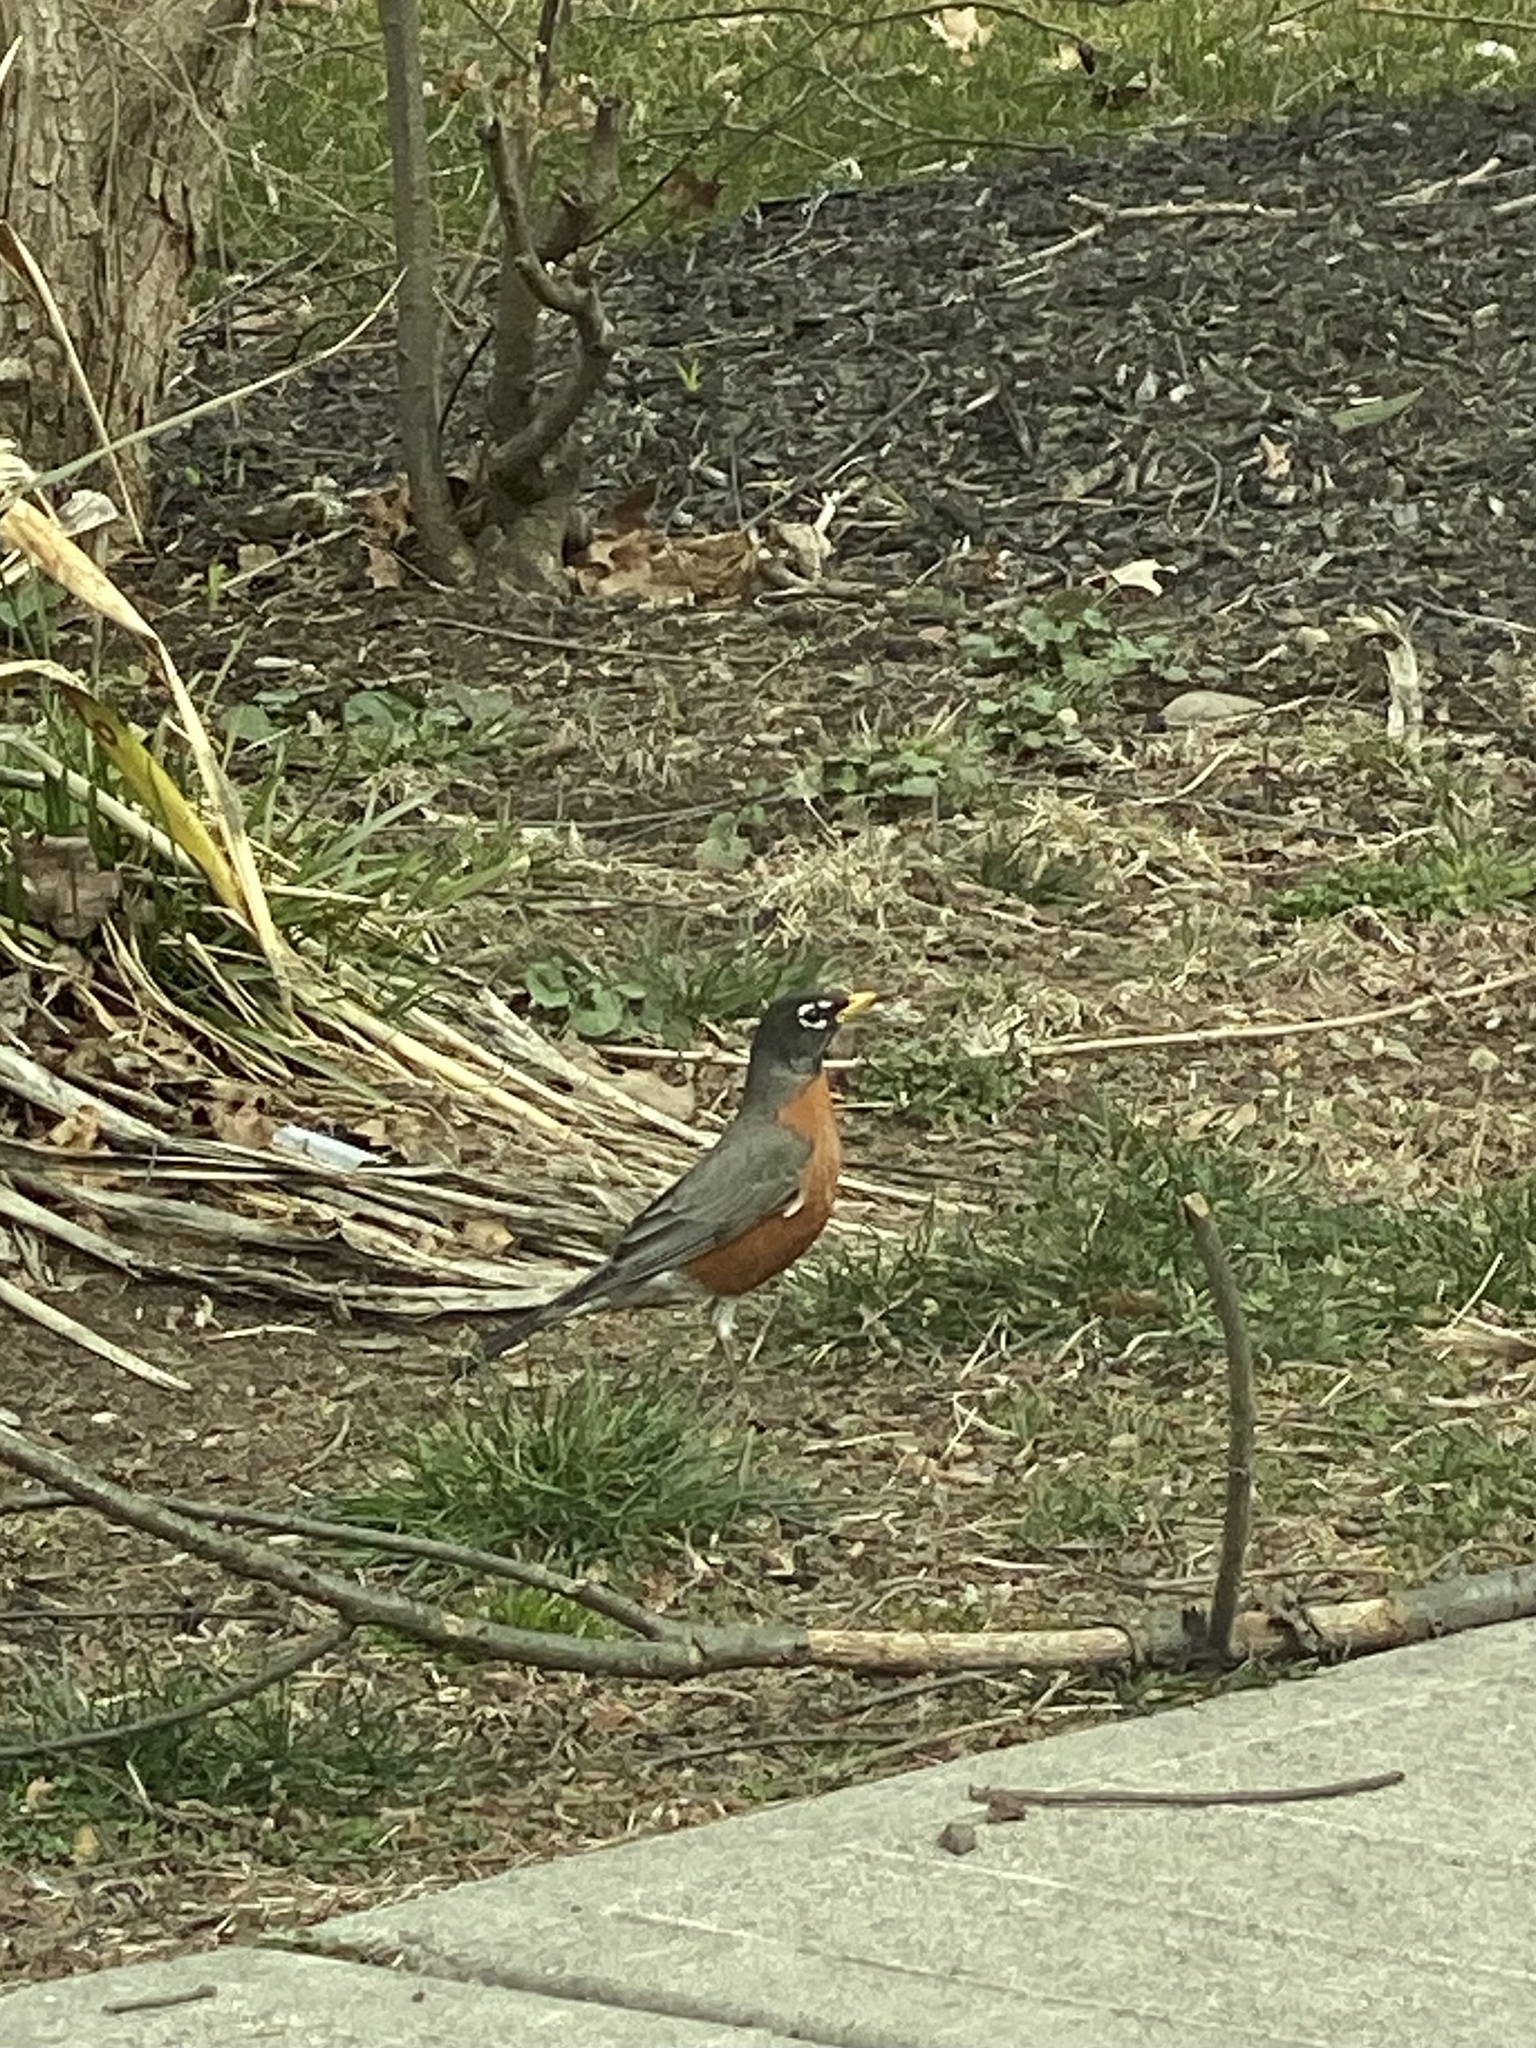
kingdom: Animalia
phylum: Chordata
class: Aves
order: Passeriformes
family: Turdidae
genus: Turdus
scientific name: Turdus migratorius
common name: American robin
